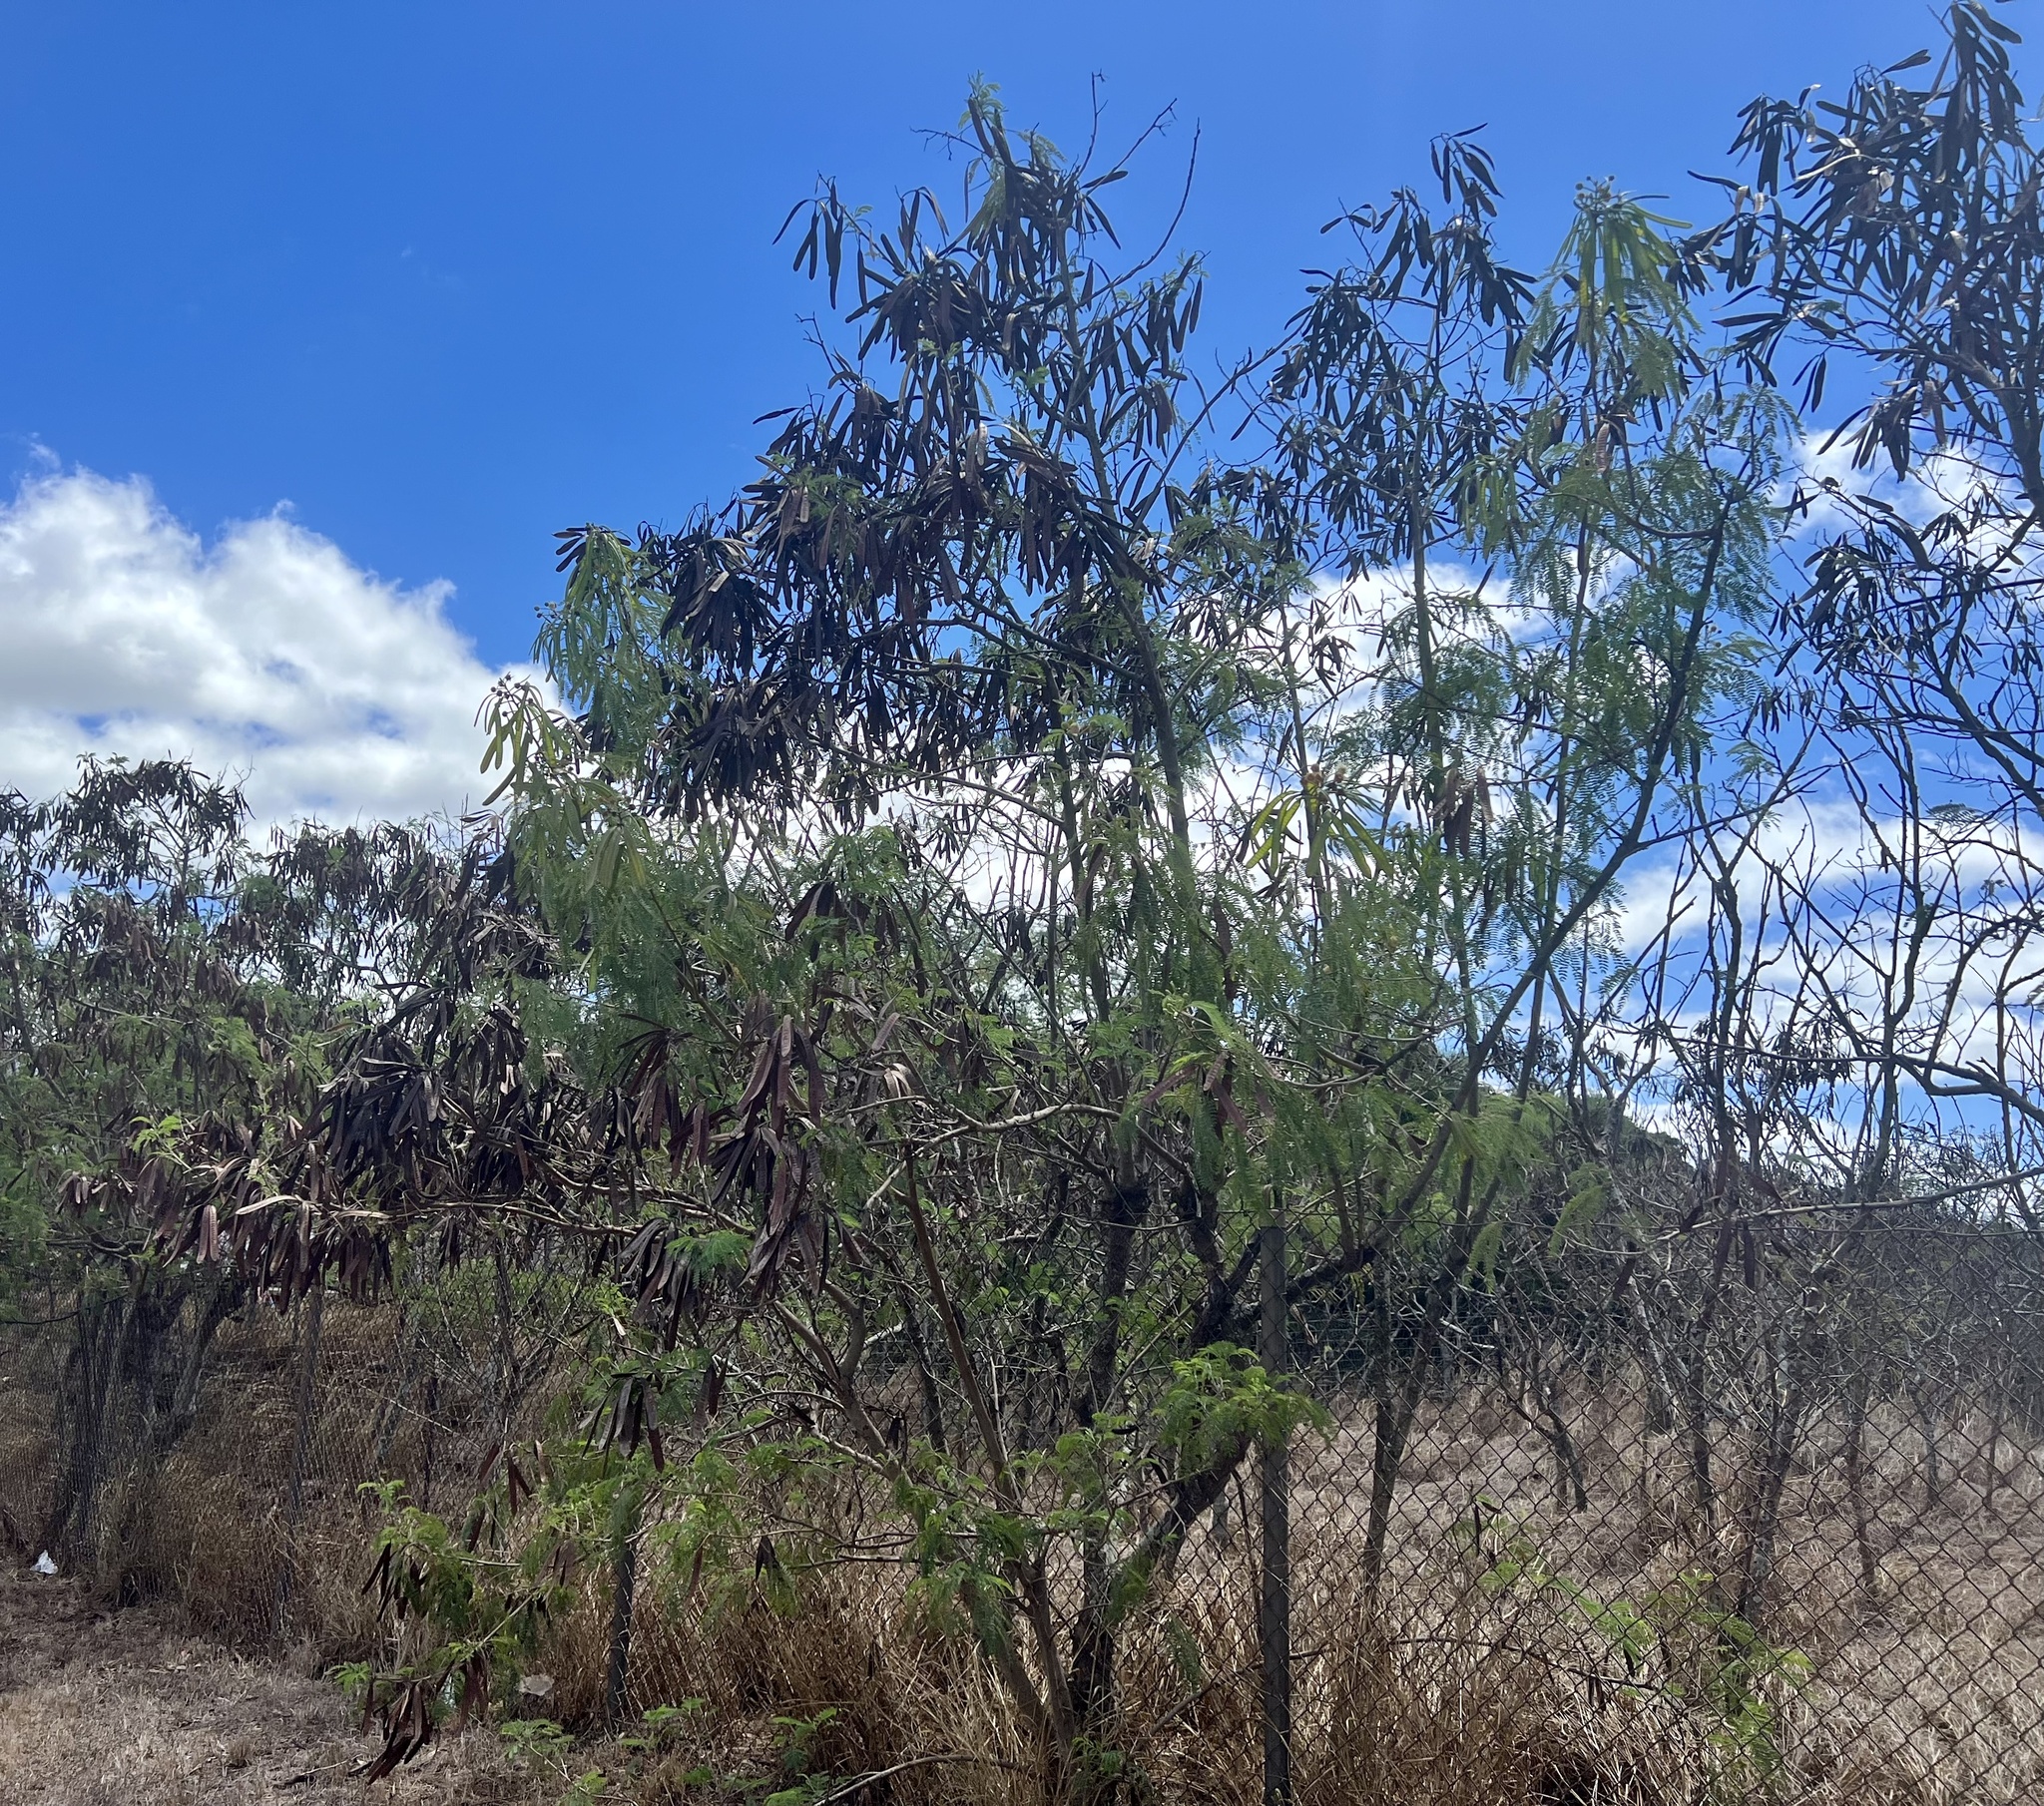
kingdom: Plantae
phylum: Tracheophyta
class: Magnoliopsida
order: Fabales
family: Fabaceae
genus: Leucaena
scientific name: Leucaena leucocephala
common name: White leadtree
